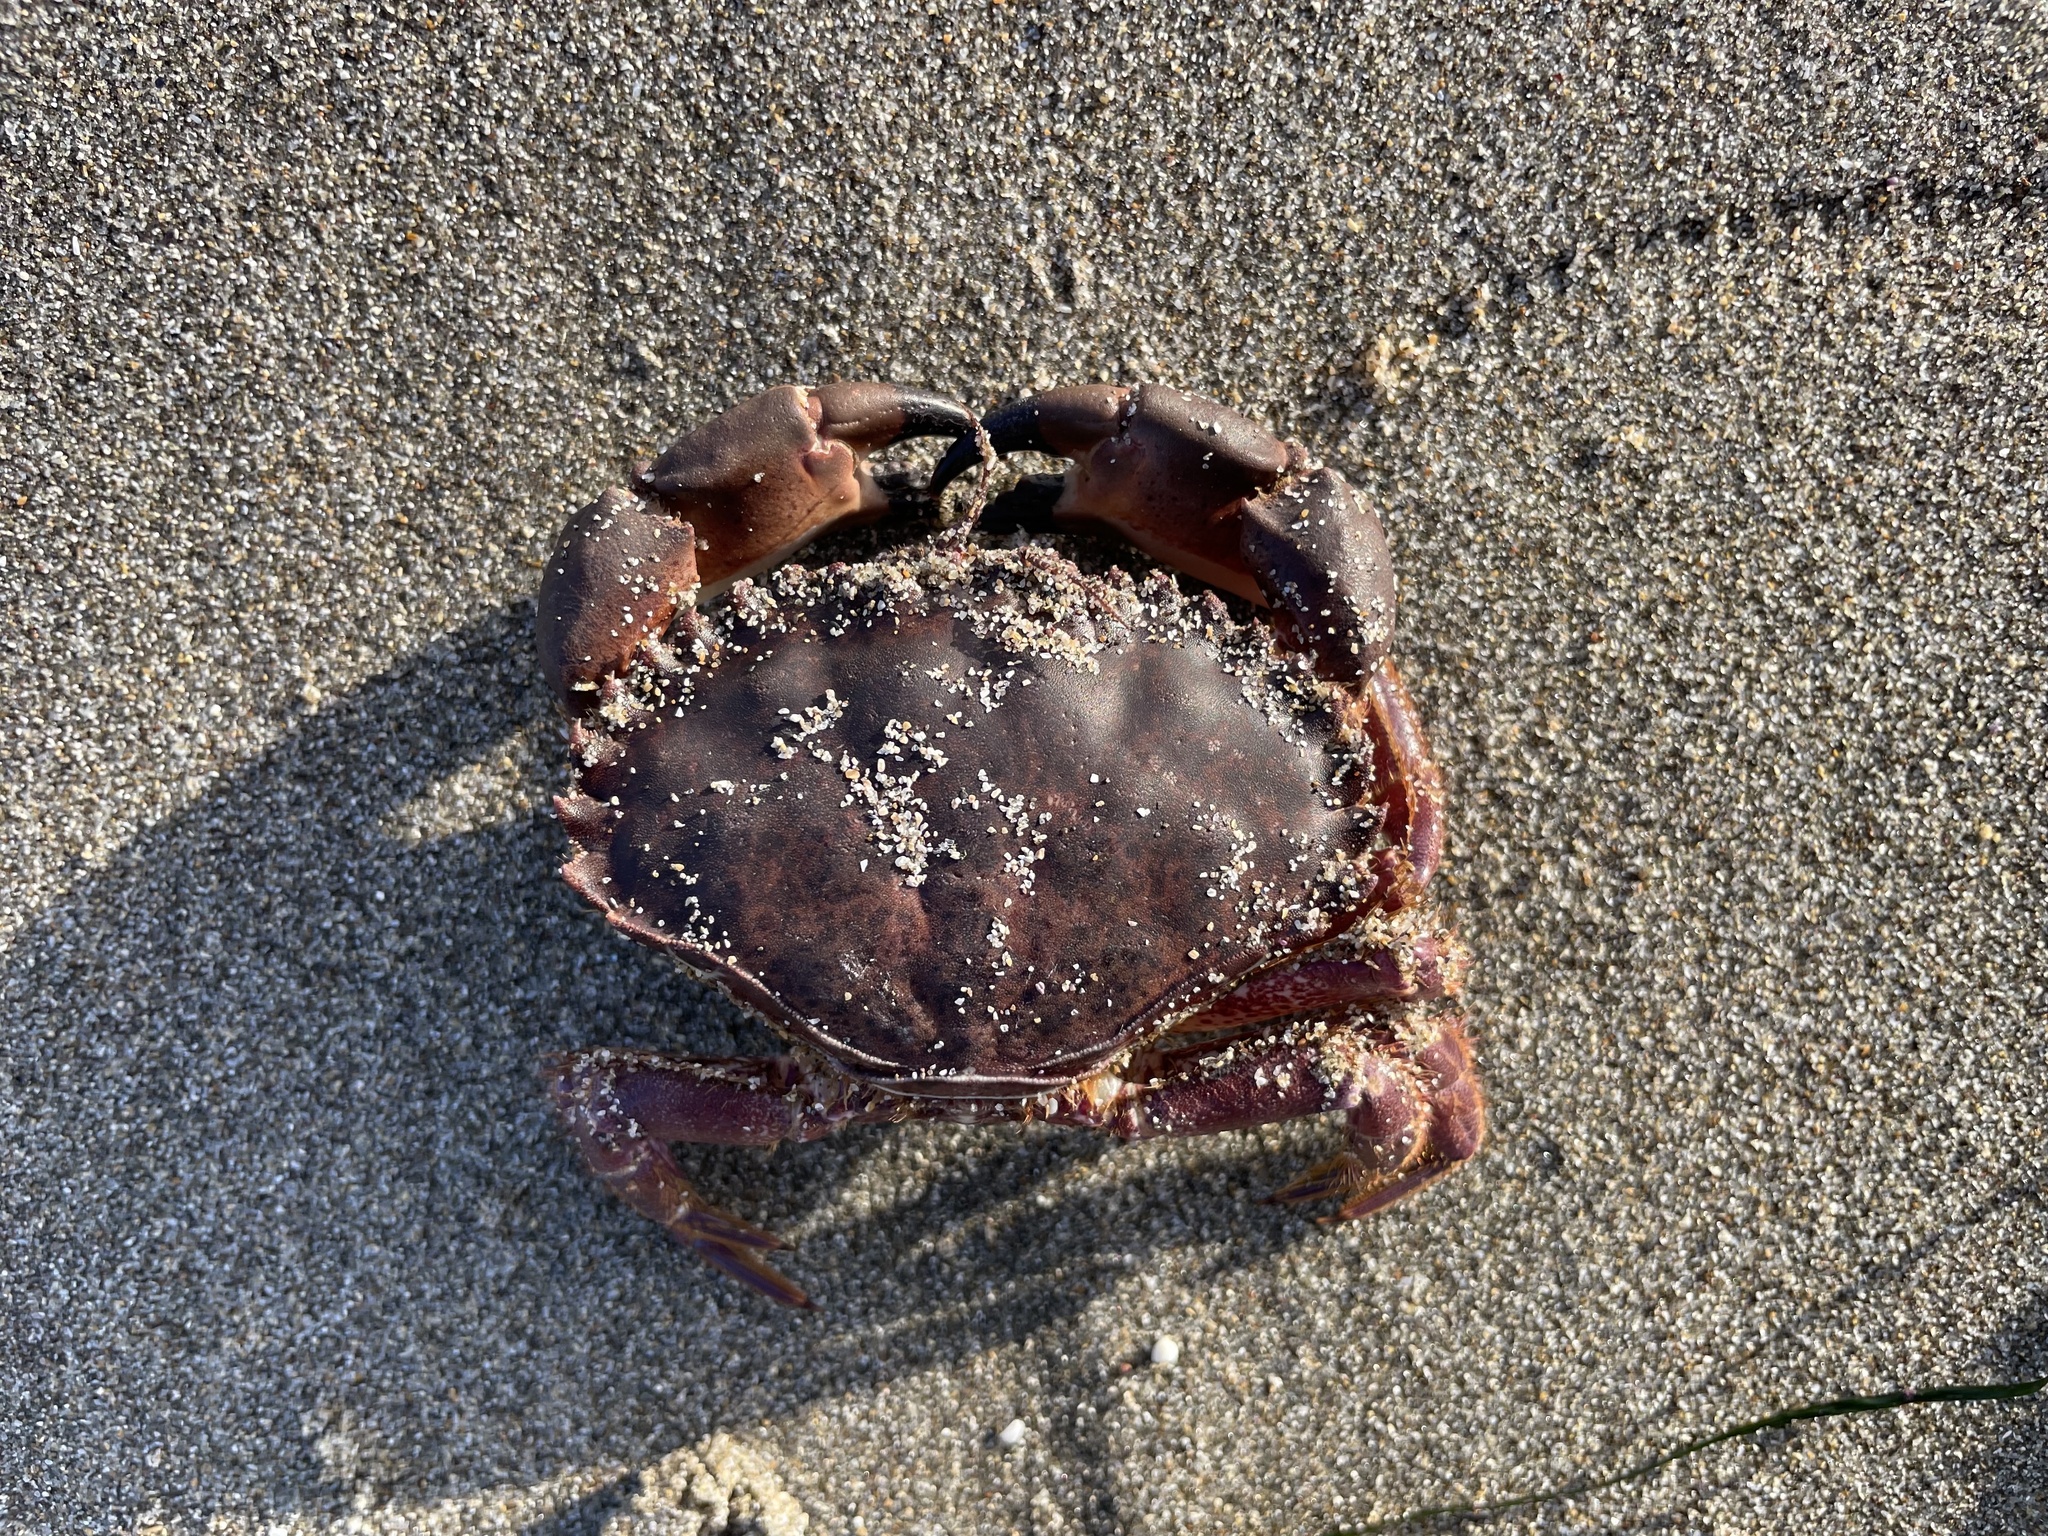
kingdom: Animalia
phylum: Arthropoda
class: Malacostraca
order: Decapoda
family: Cancridae
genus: Romaleon
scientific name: Romaleon antennarium
